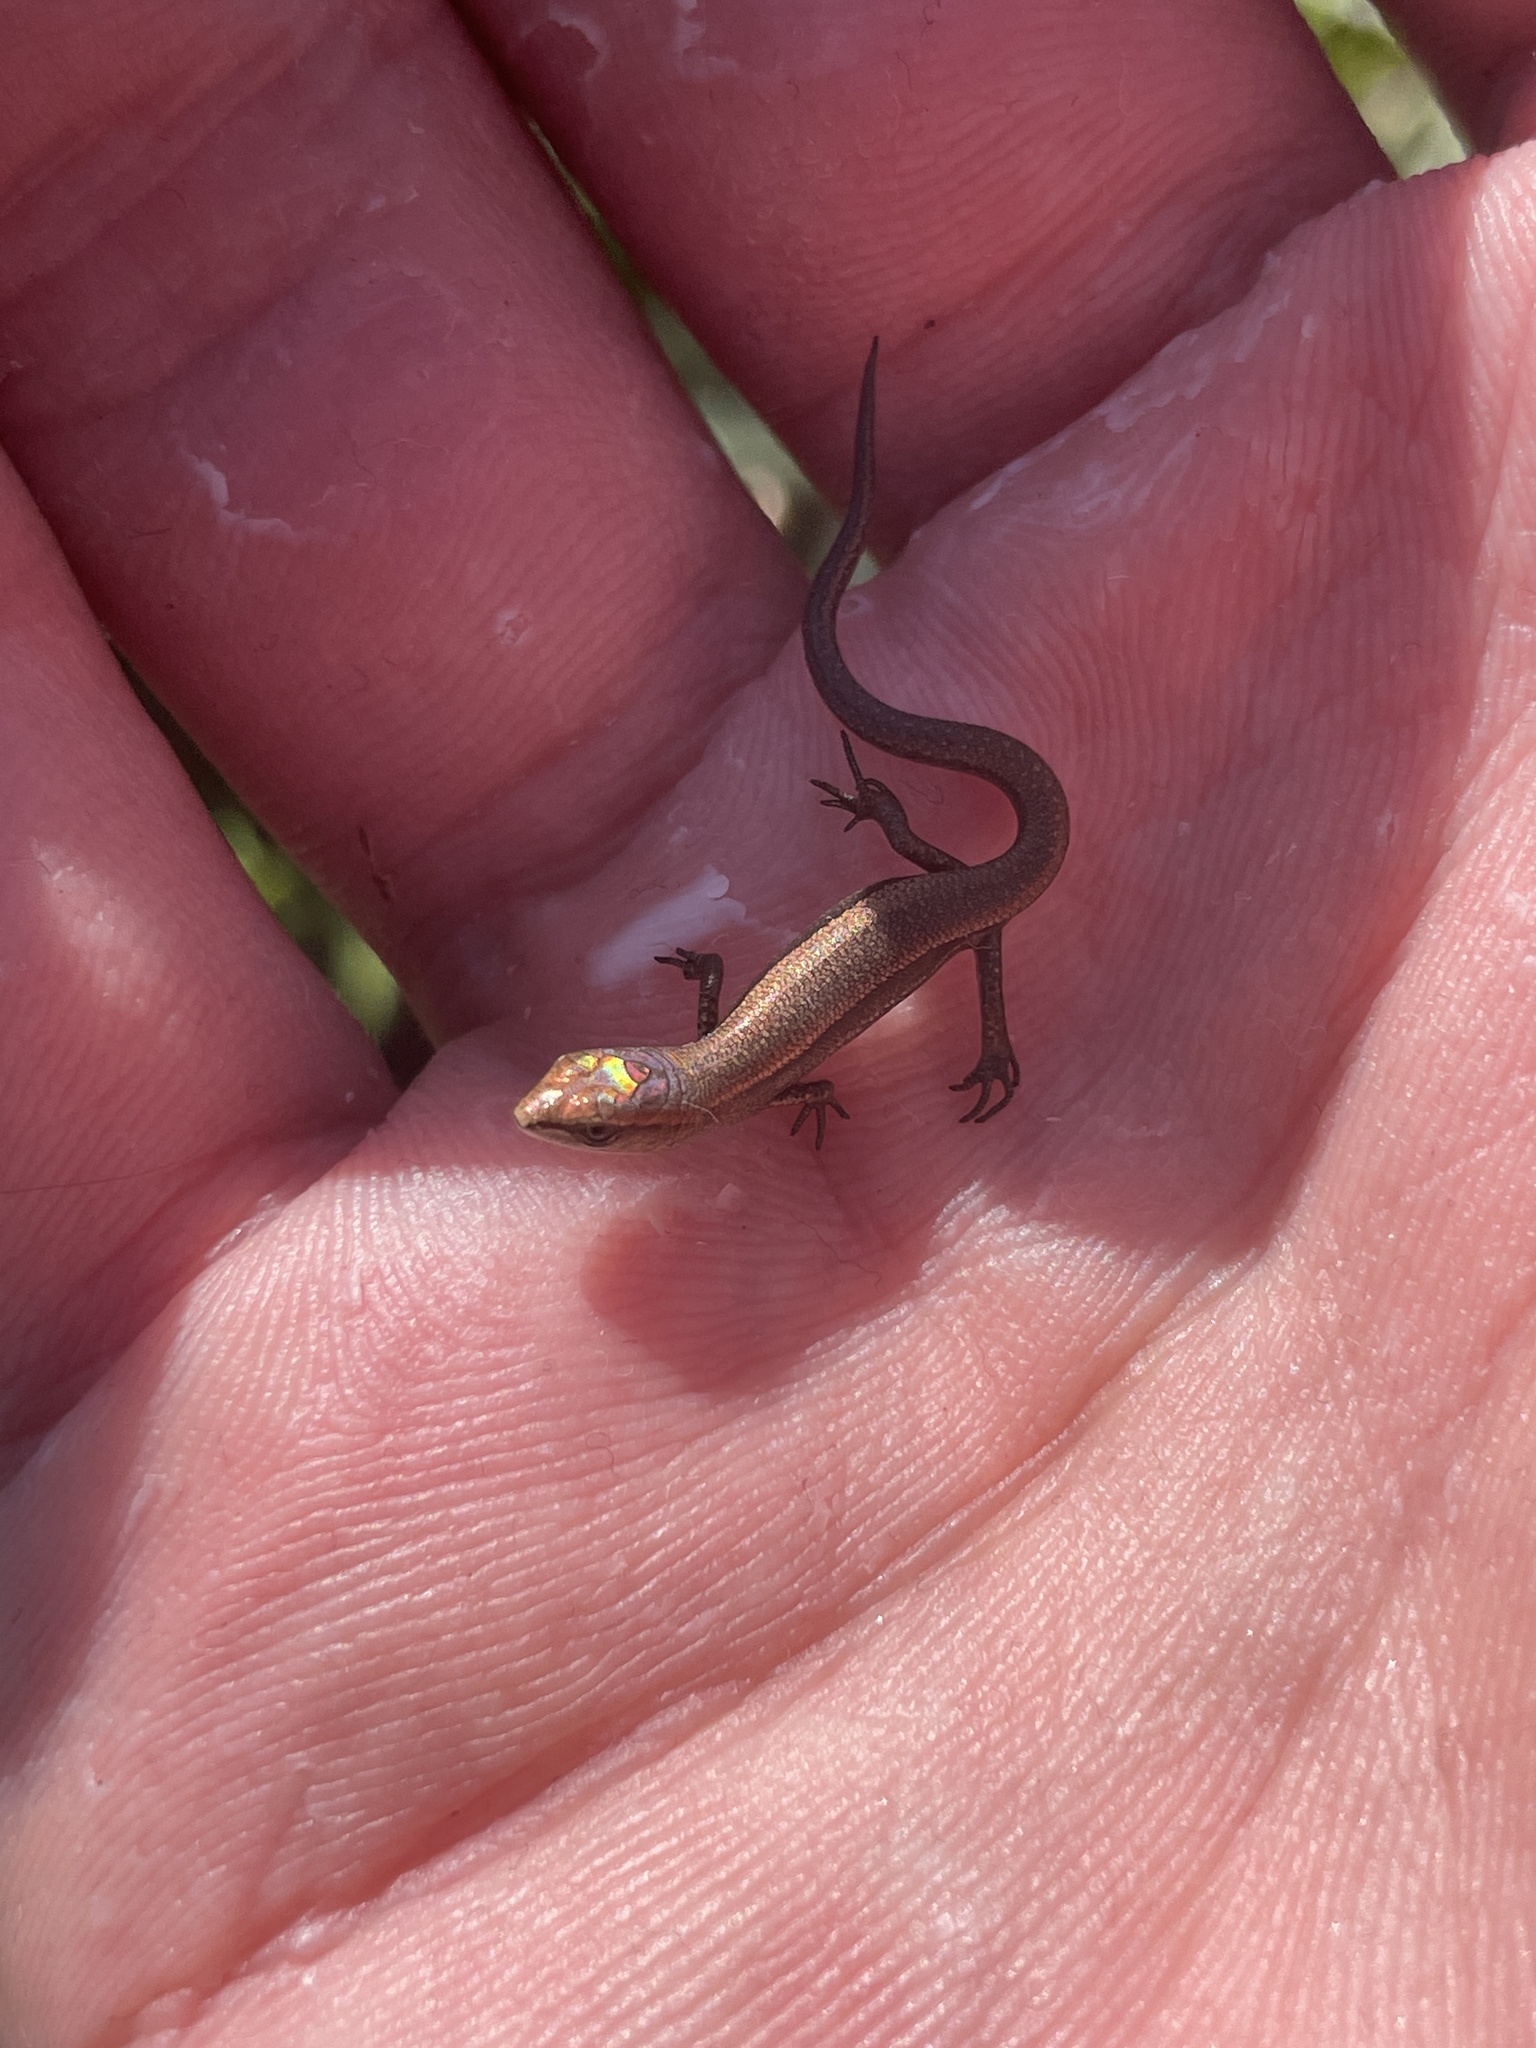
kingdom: Animalia
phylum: Chordata
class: Squamata
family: Scincidae
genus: Lampropholis
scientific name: Lampropholis delicata
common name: Plague skink
